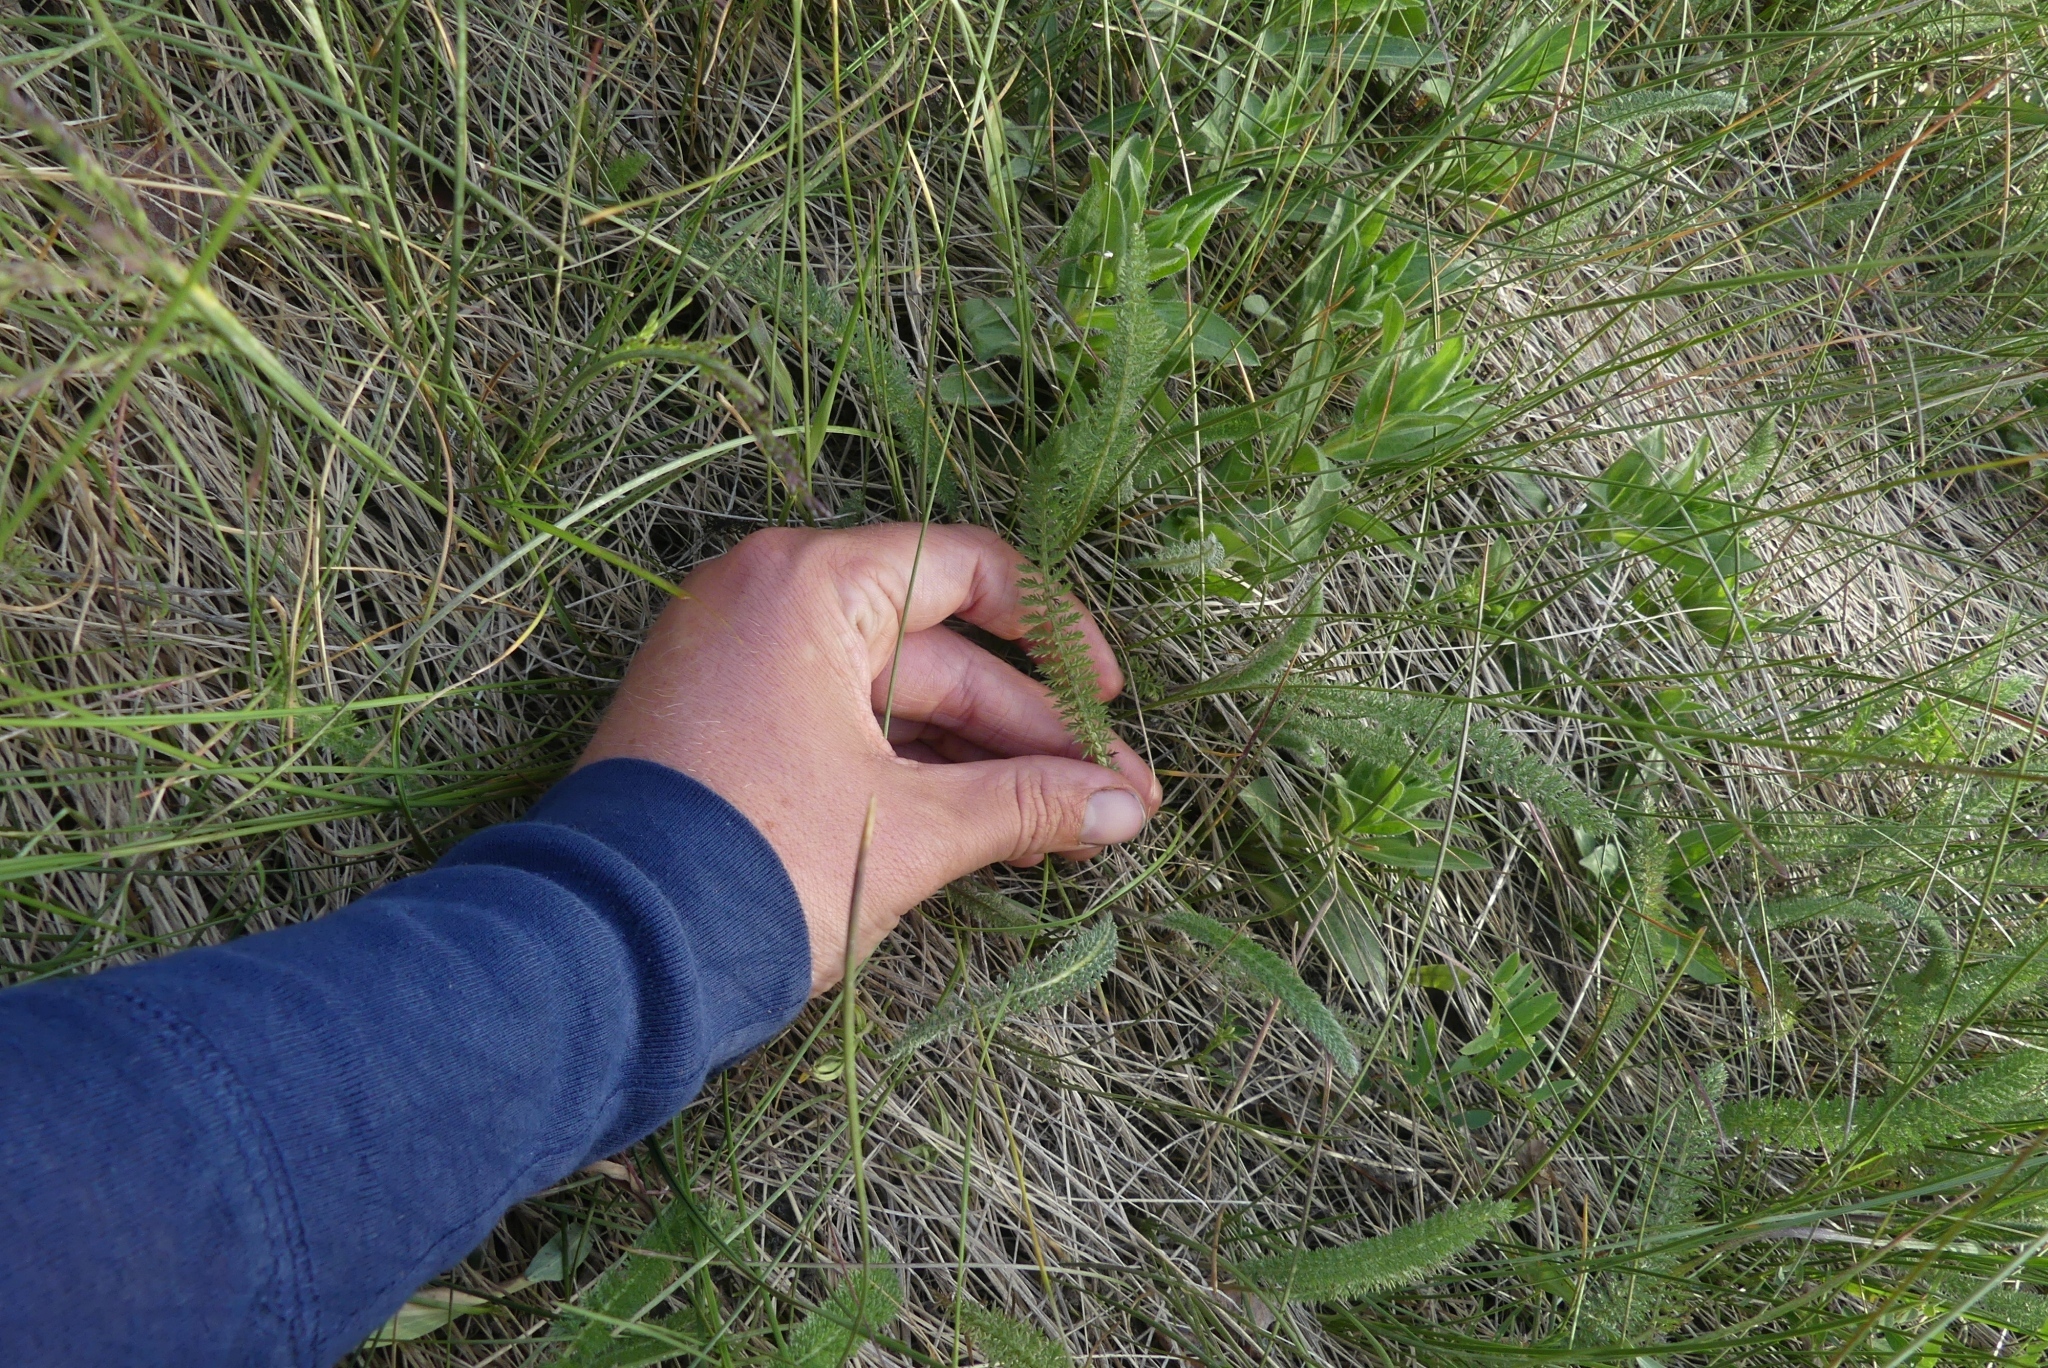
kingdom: Plantae
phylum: Tracheophyta
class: Magnoliopsida
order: Asterales
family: Asteraceae
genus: Achillea
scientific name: Achillea millefolium
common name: Yarrow
